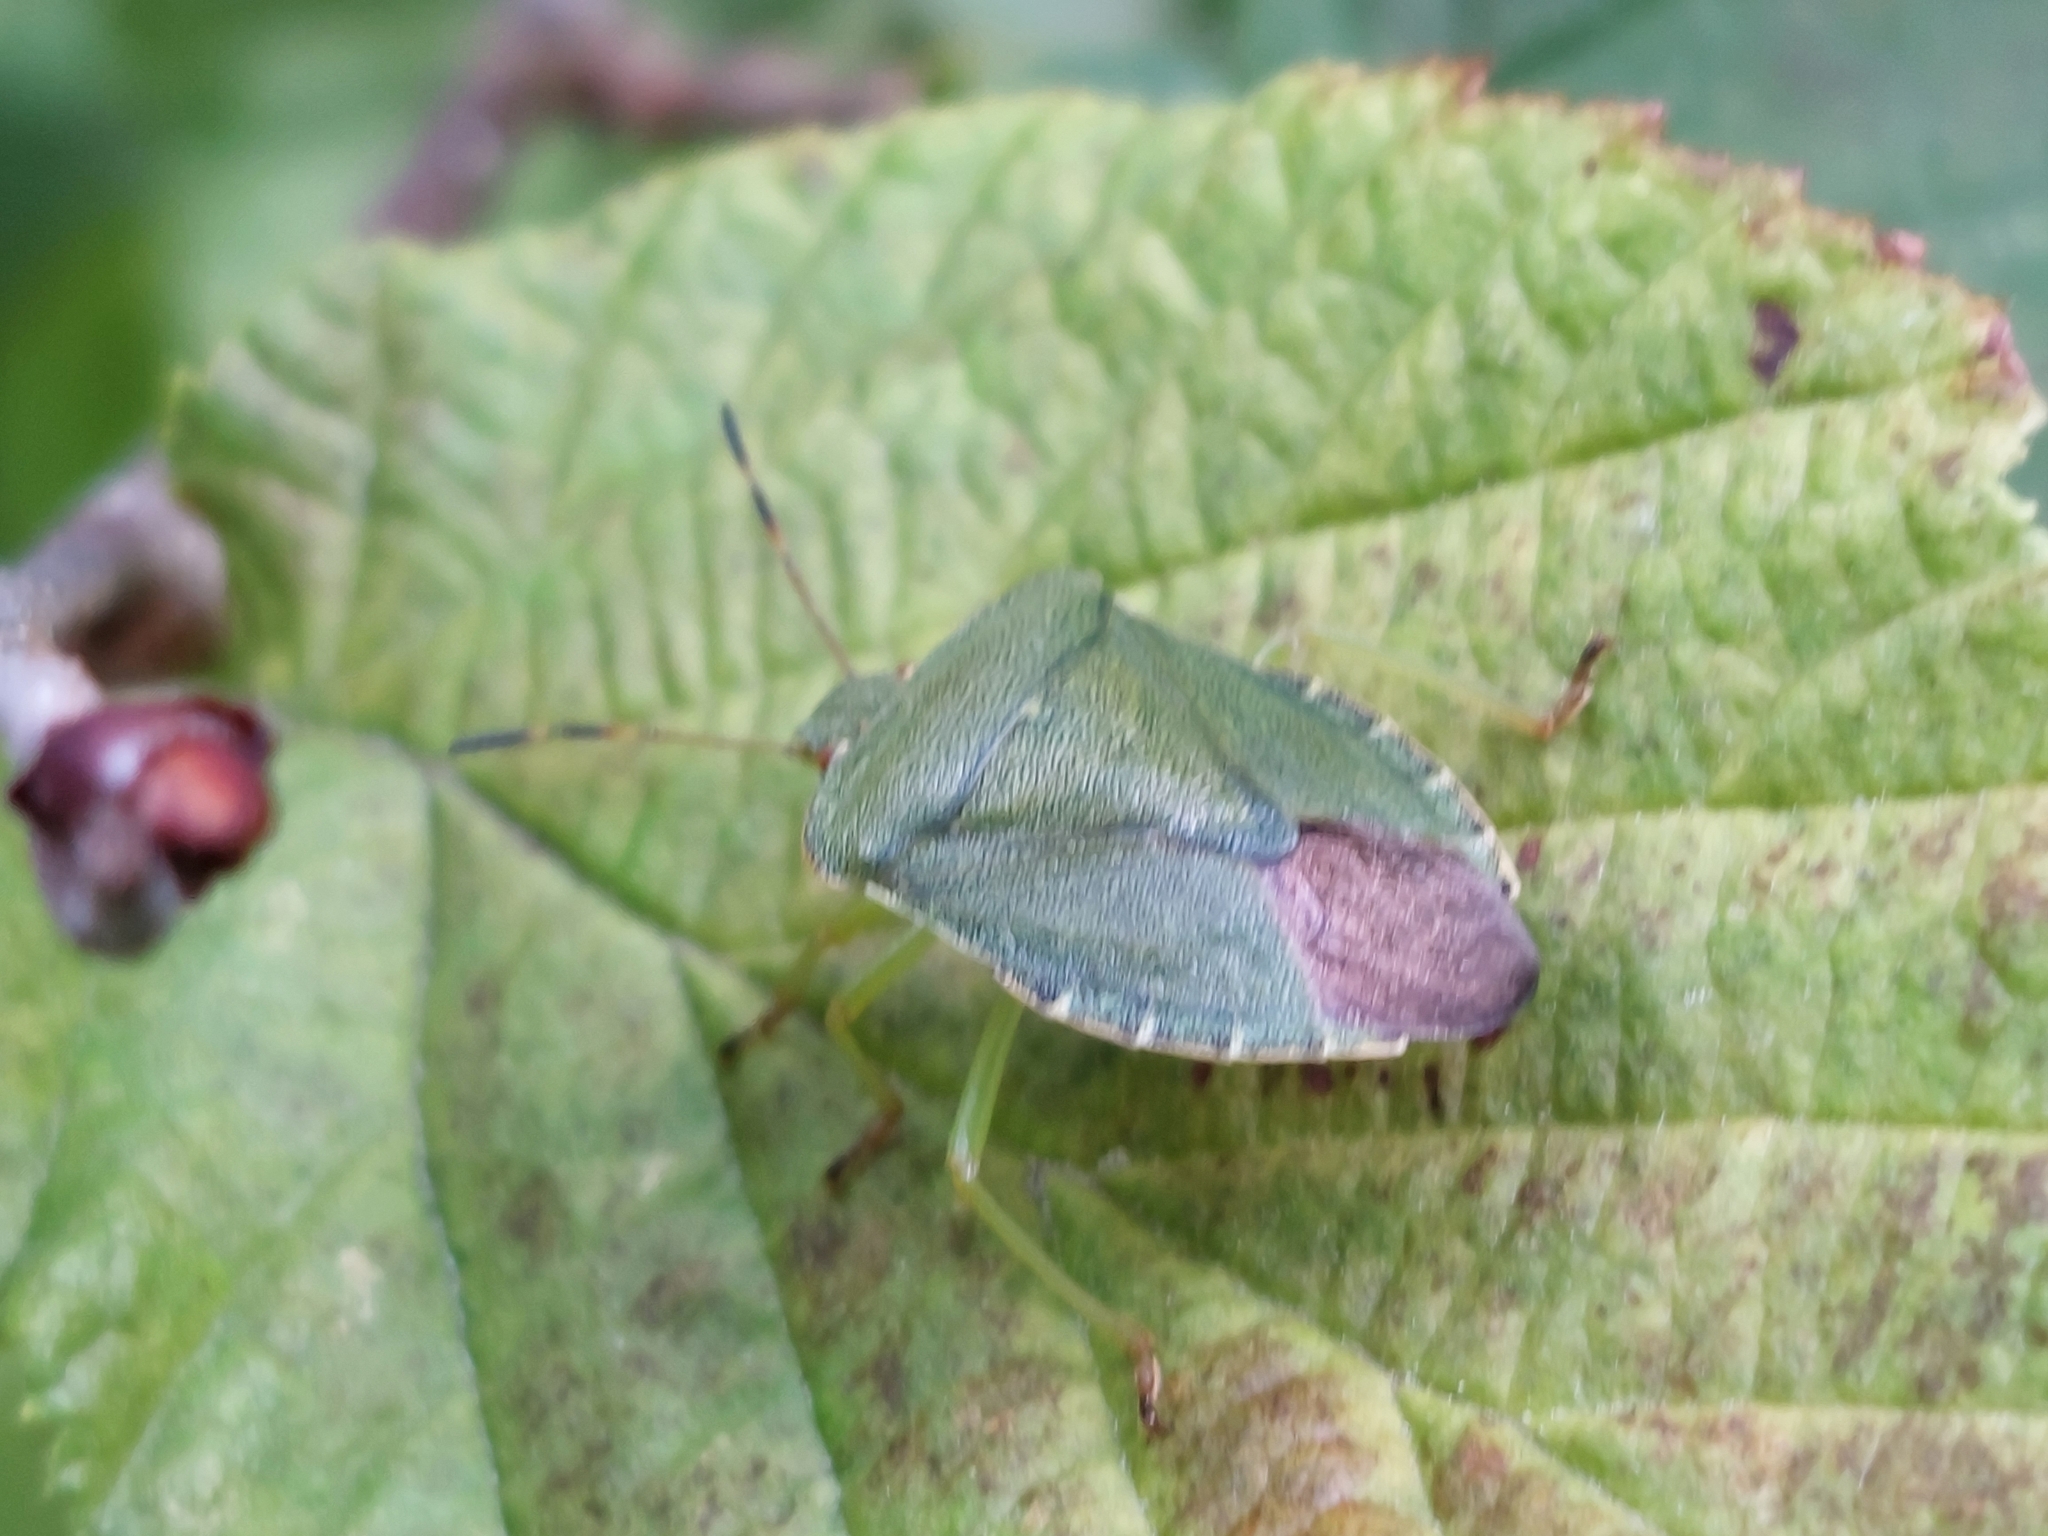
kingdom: Animalia
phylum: Arthropoda
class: Insecta
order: Hemiptera
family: Pentatomidae
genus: Palomena
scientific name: Palomena prasina
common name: Green shieldbug
